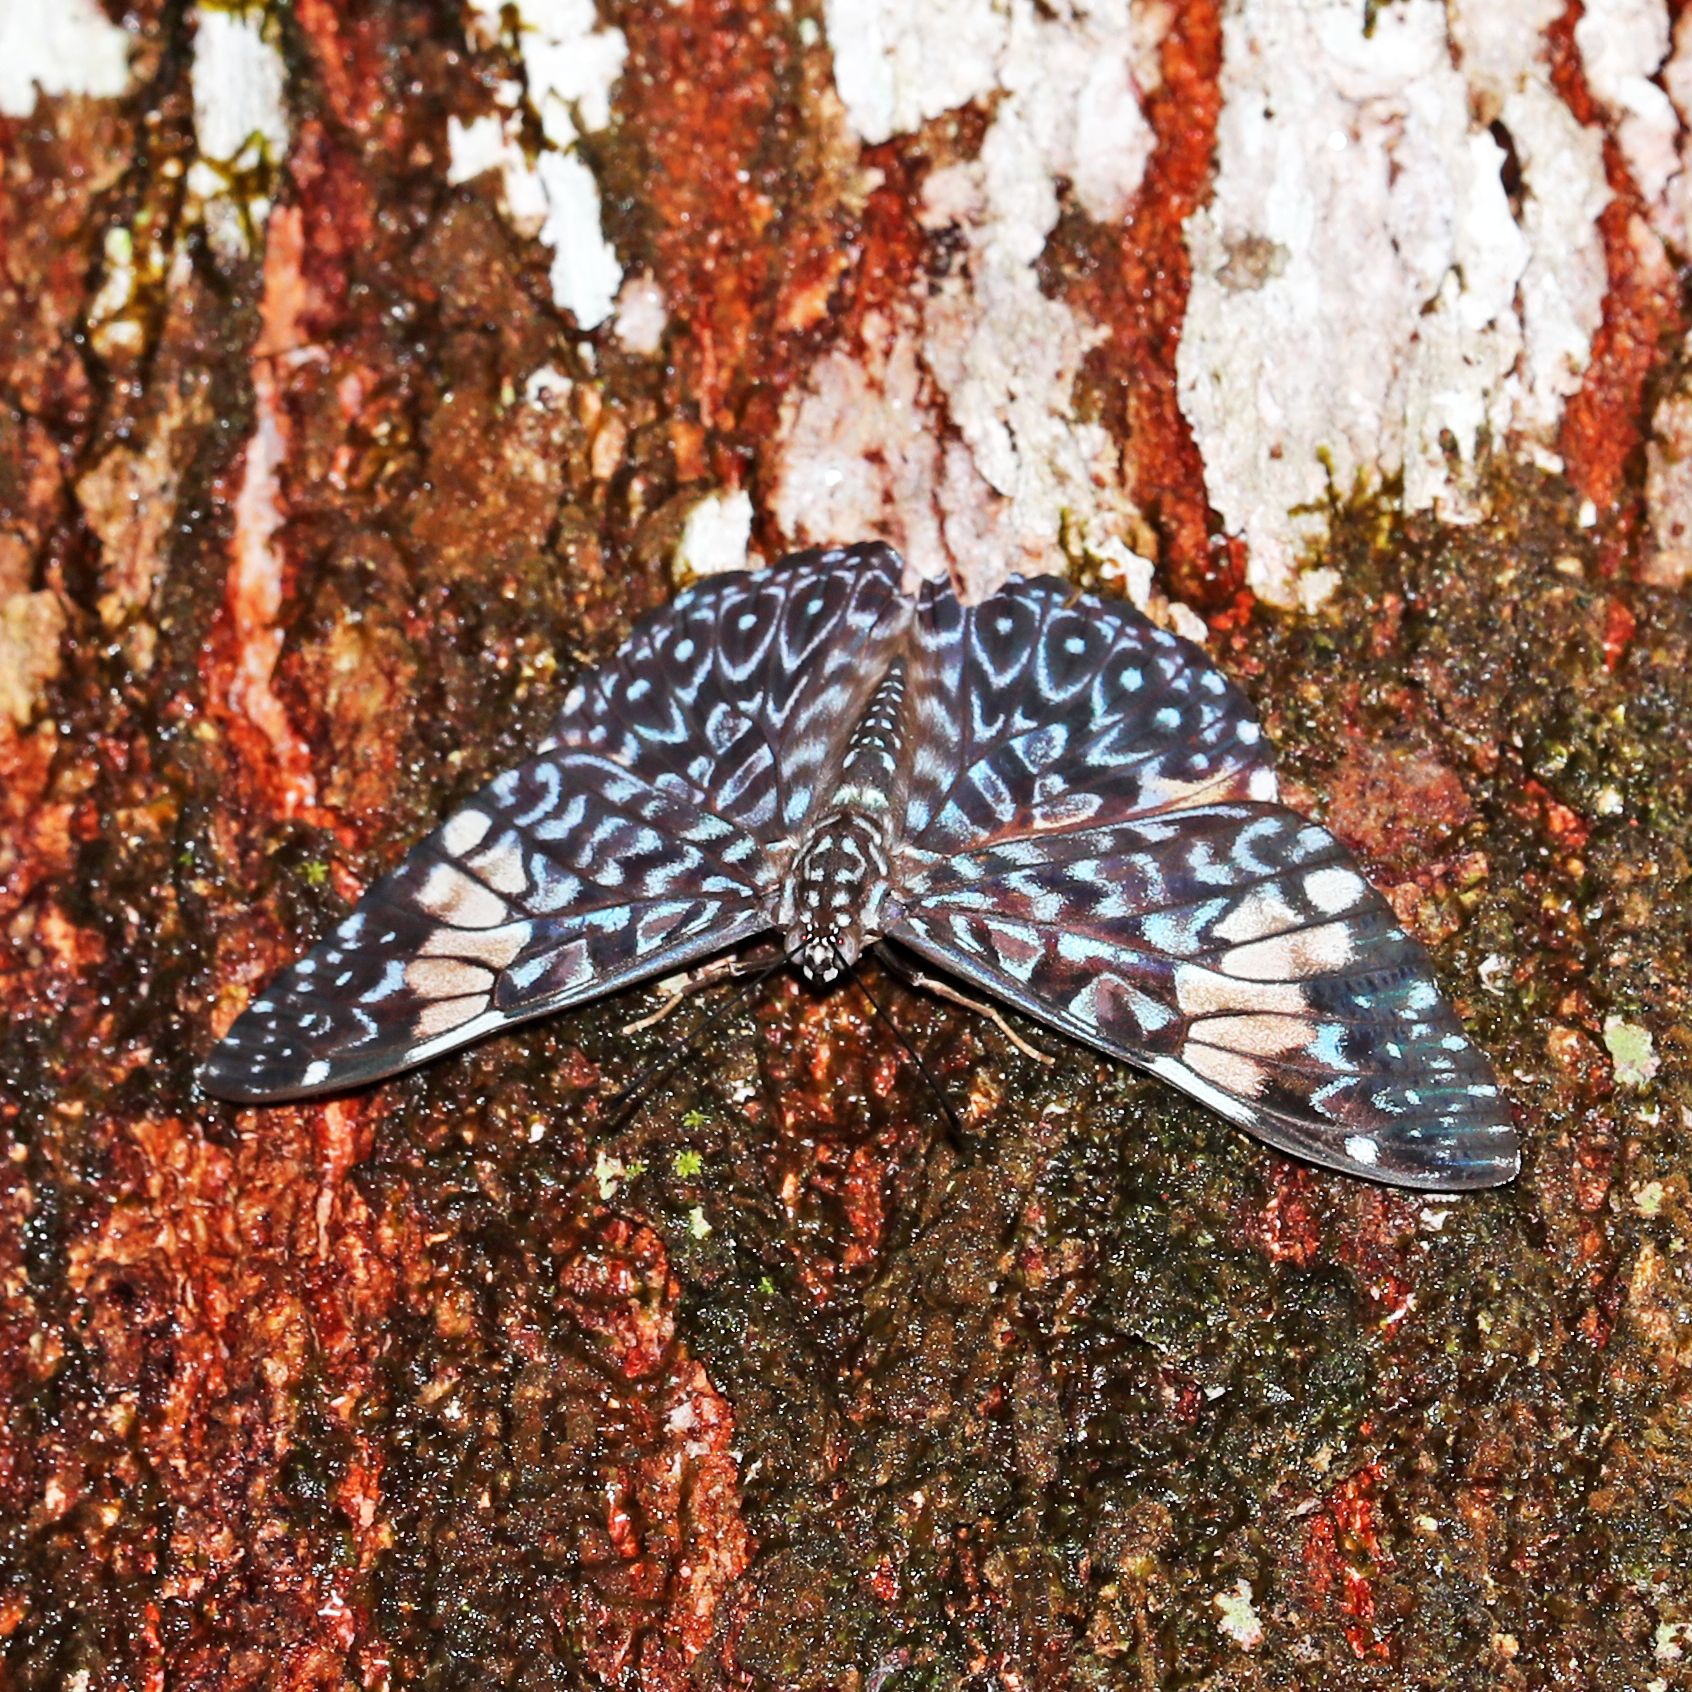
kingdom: Animalia
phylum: Arthropoda
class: Insecta
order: Lepidoptera
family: Nymphalidae
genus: Hamadryas
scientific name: Hamadryas amphinome
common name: Red cracker
